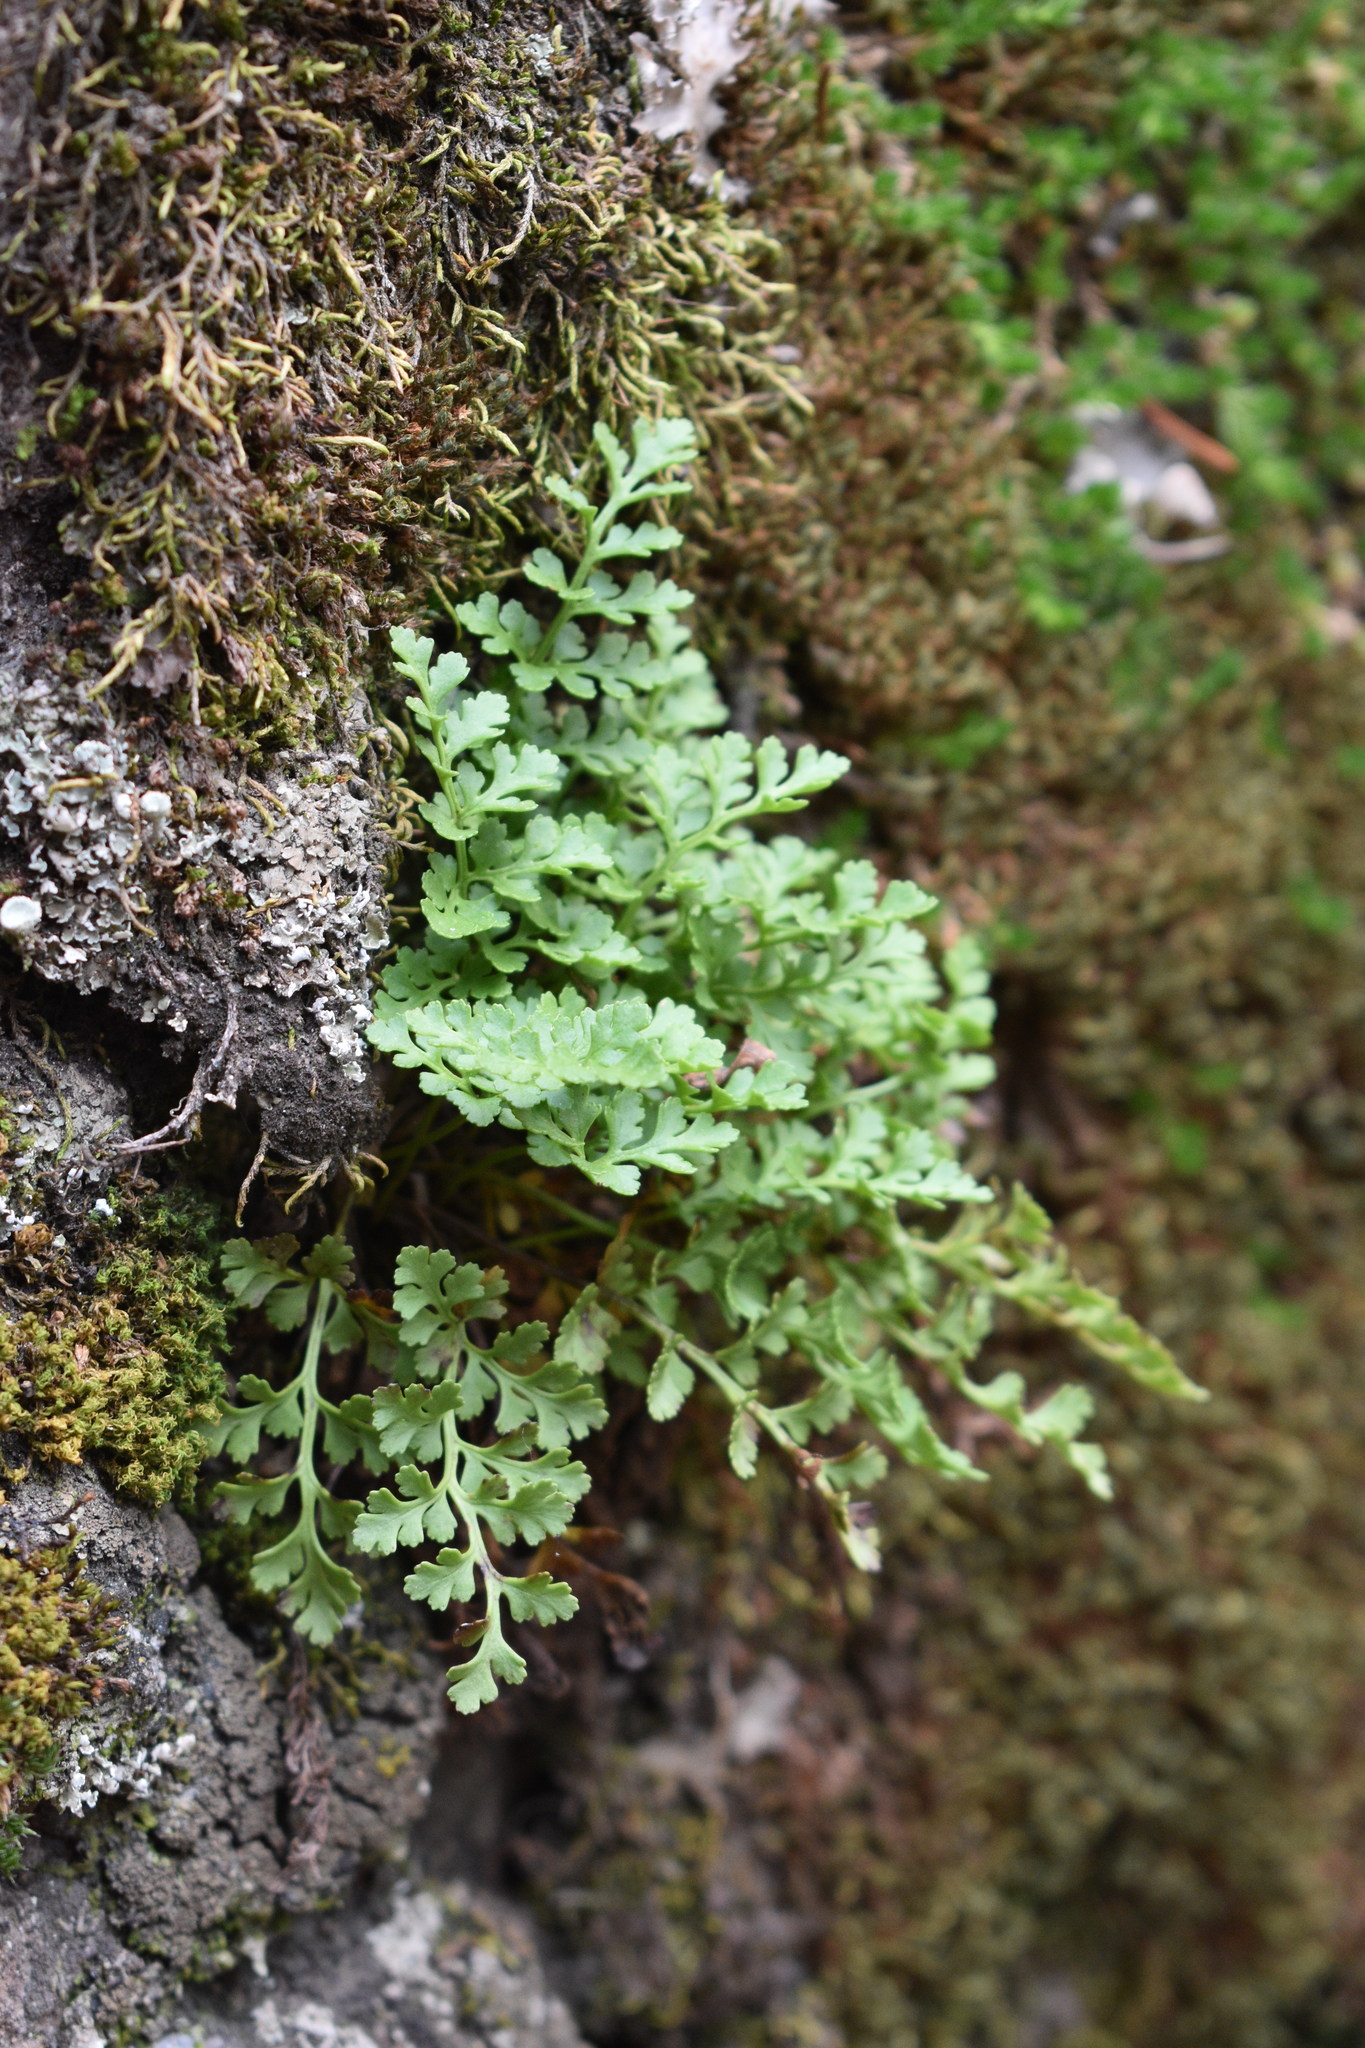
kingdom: Plantae
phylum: Tracheophyta
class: Polypodiopsida
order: Polypodiales
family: Pteridaceae
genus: Cryptogramma
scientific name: Cryptogramma acrostichoides
